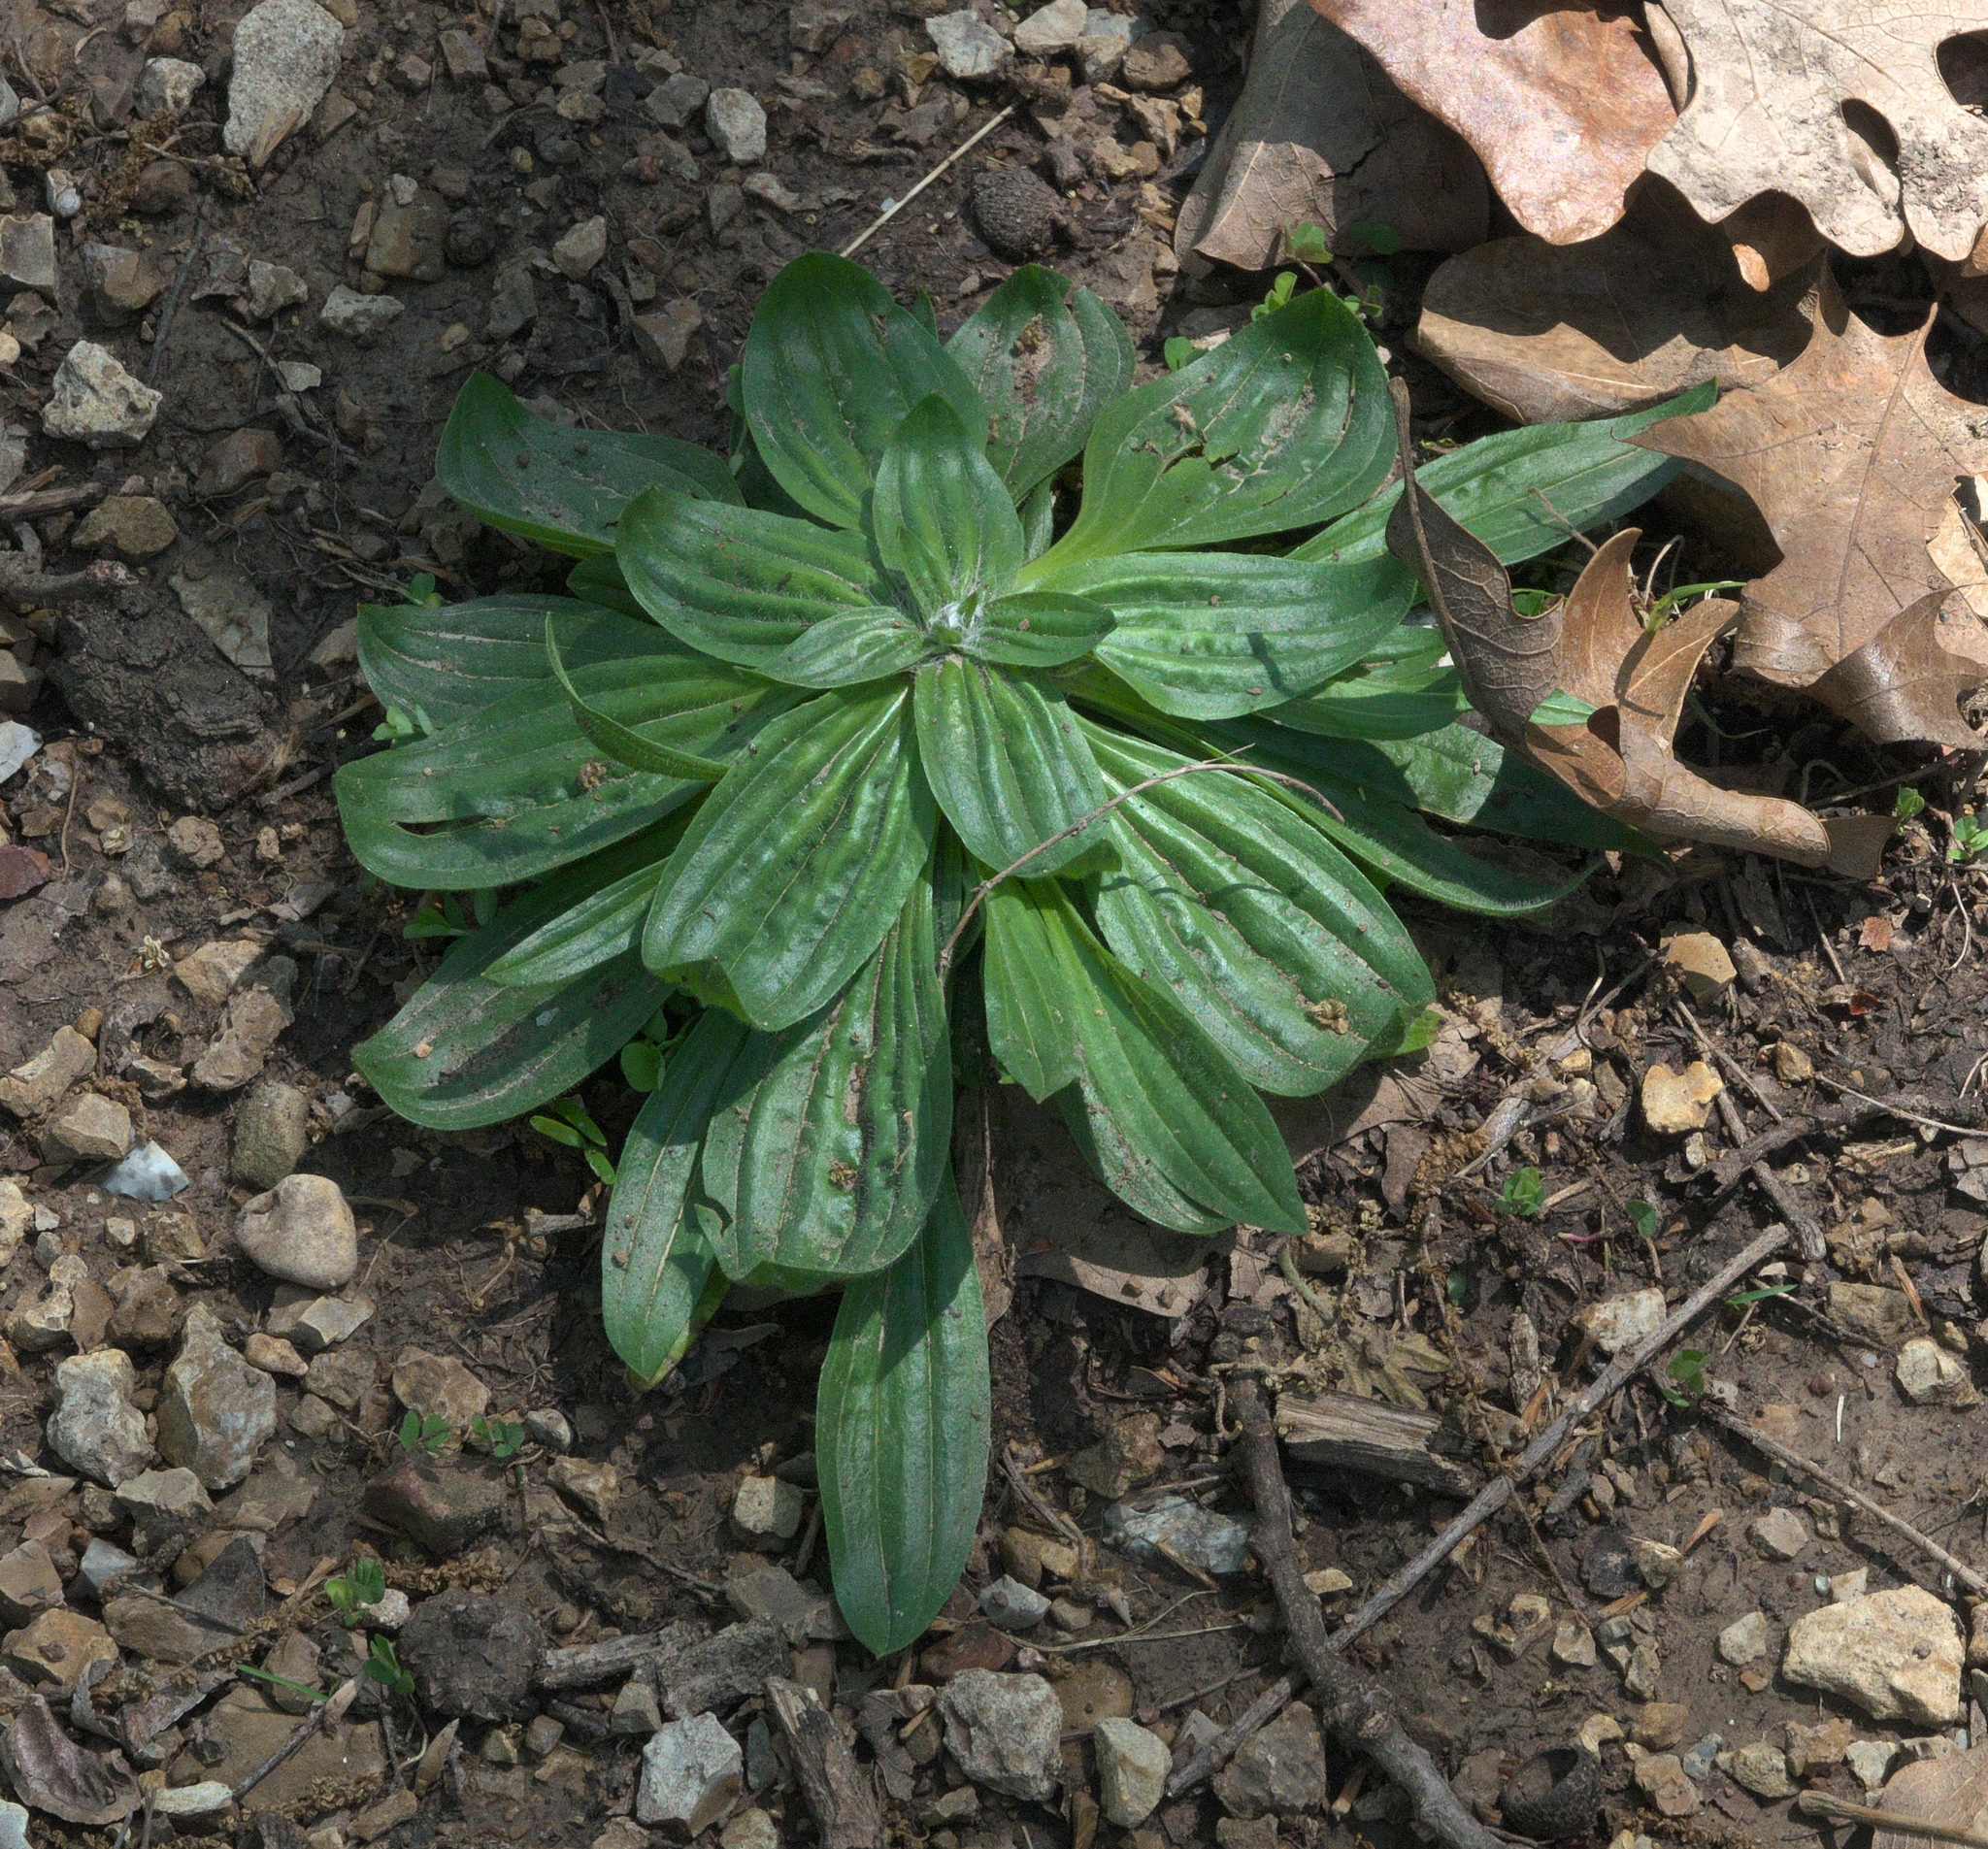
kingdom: Plantae
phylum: Tracheophyta
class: Magnoliopsida
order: Lamiales
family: Plantaginaceae
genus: Plantago
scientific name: Plantago lanceolata
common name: Ribwort plantain
